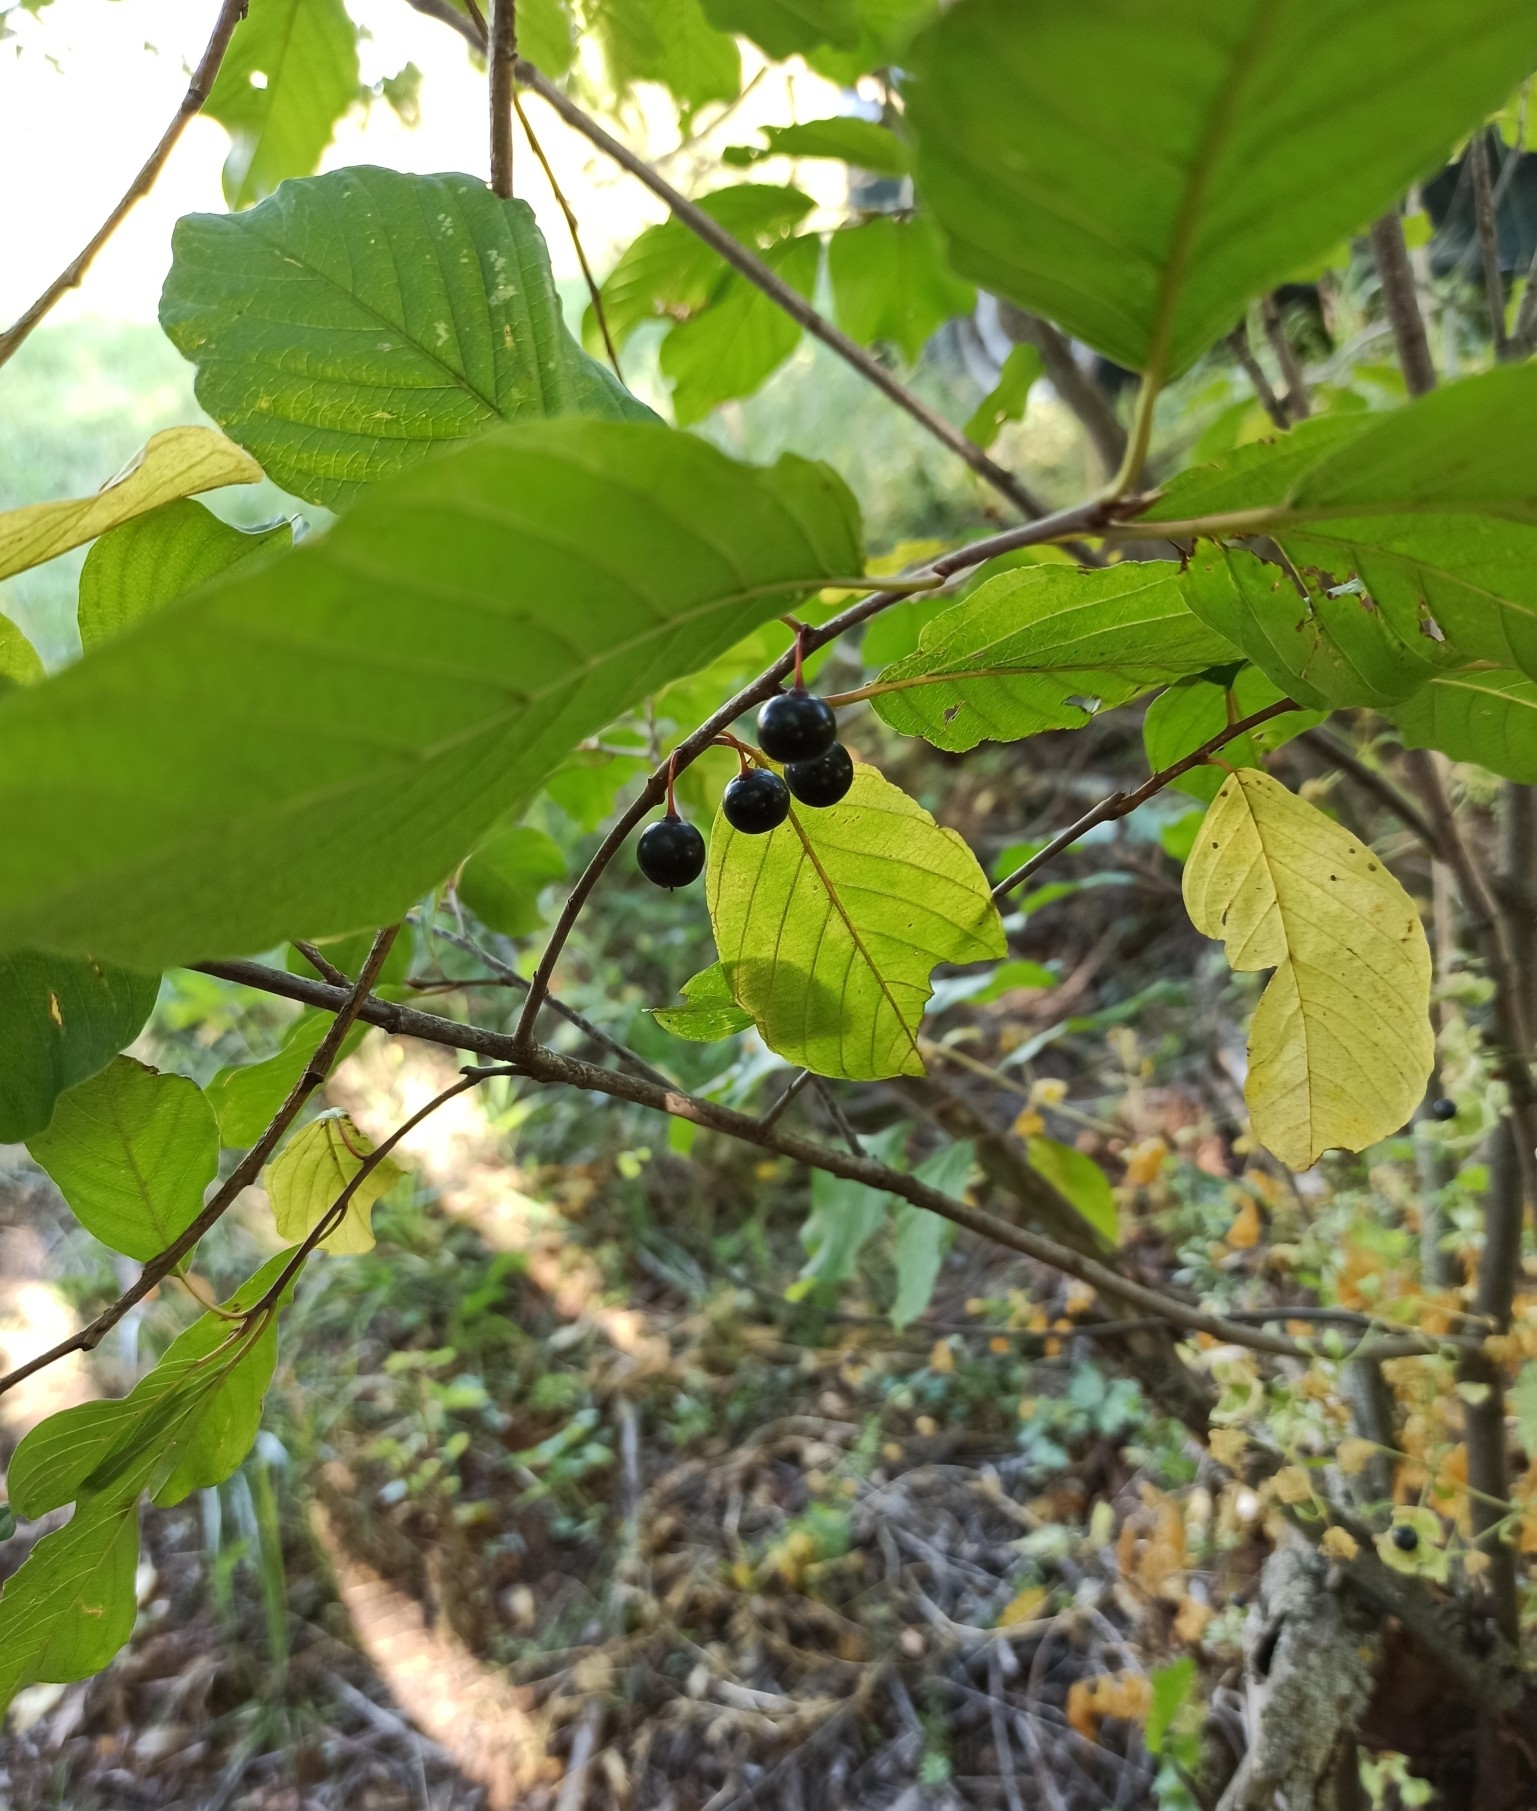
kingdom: Plantae
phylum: Tracheophyta
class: Magnoliopsida
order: Rosales
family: Rhamnaceae
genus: Frangula
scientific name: Frangula alnus
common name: Alder buckthorn
